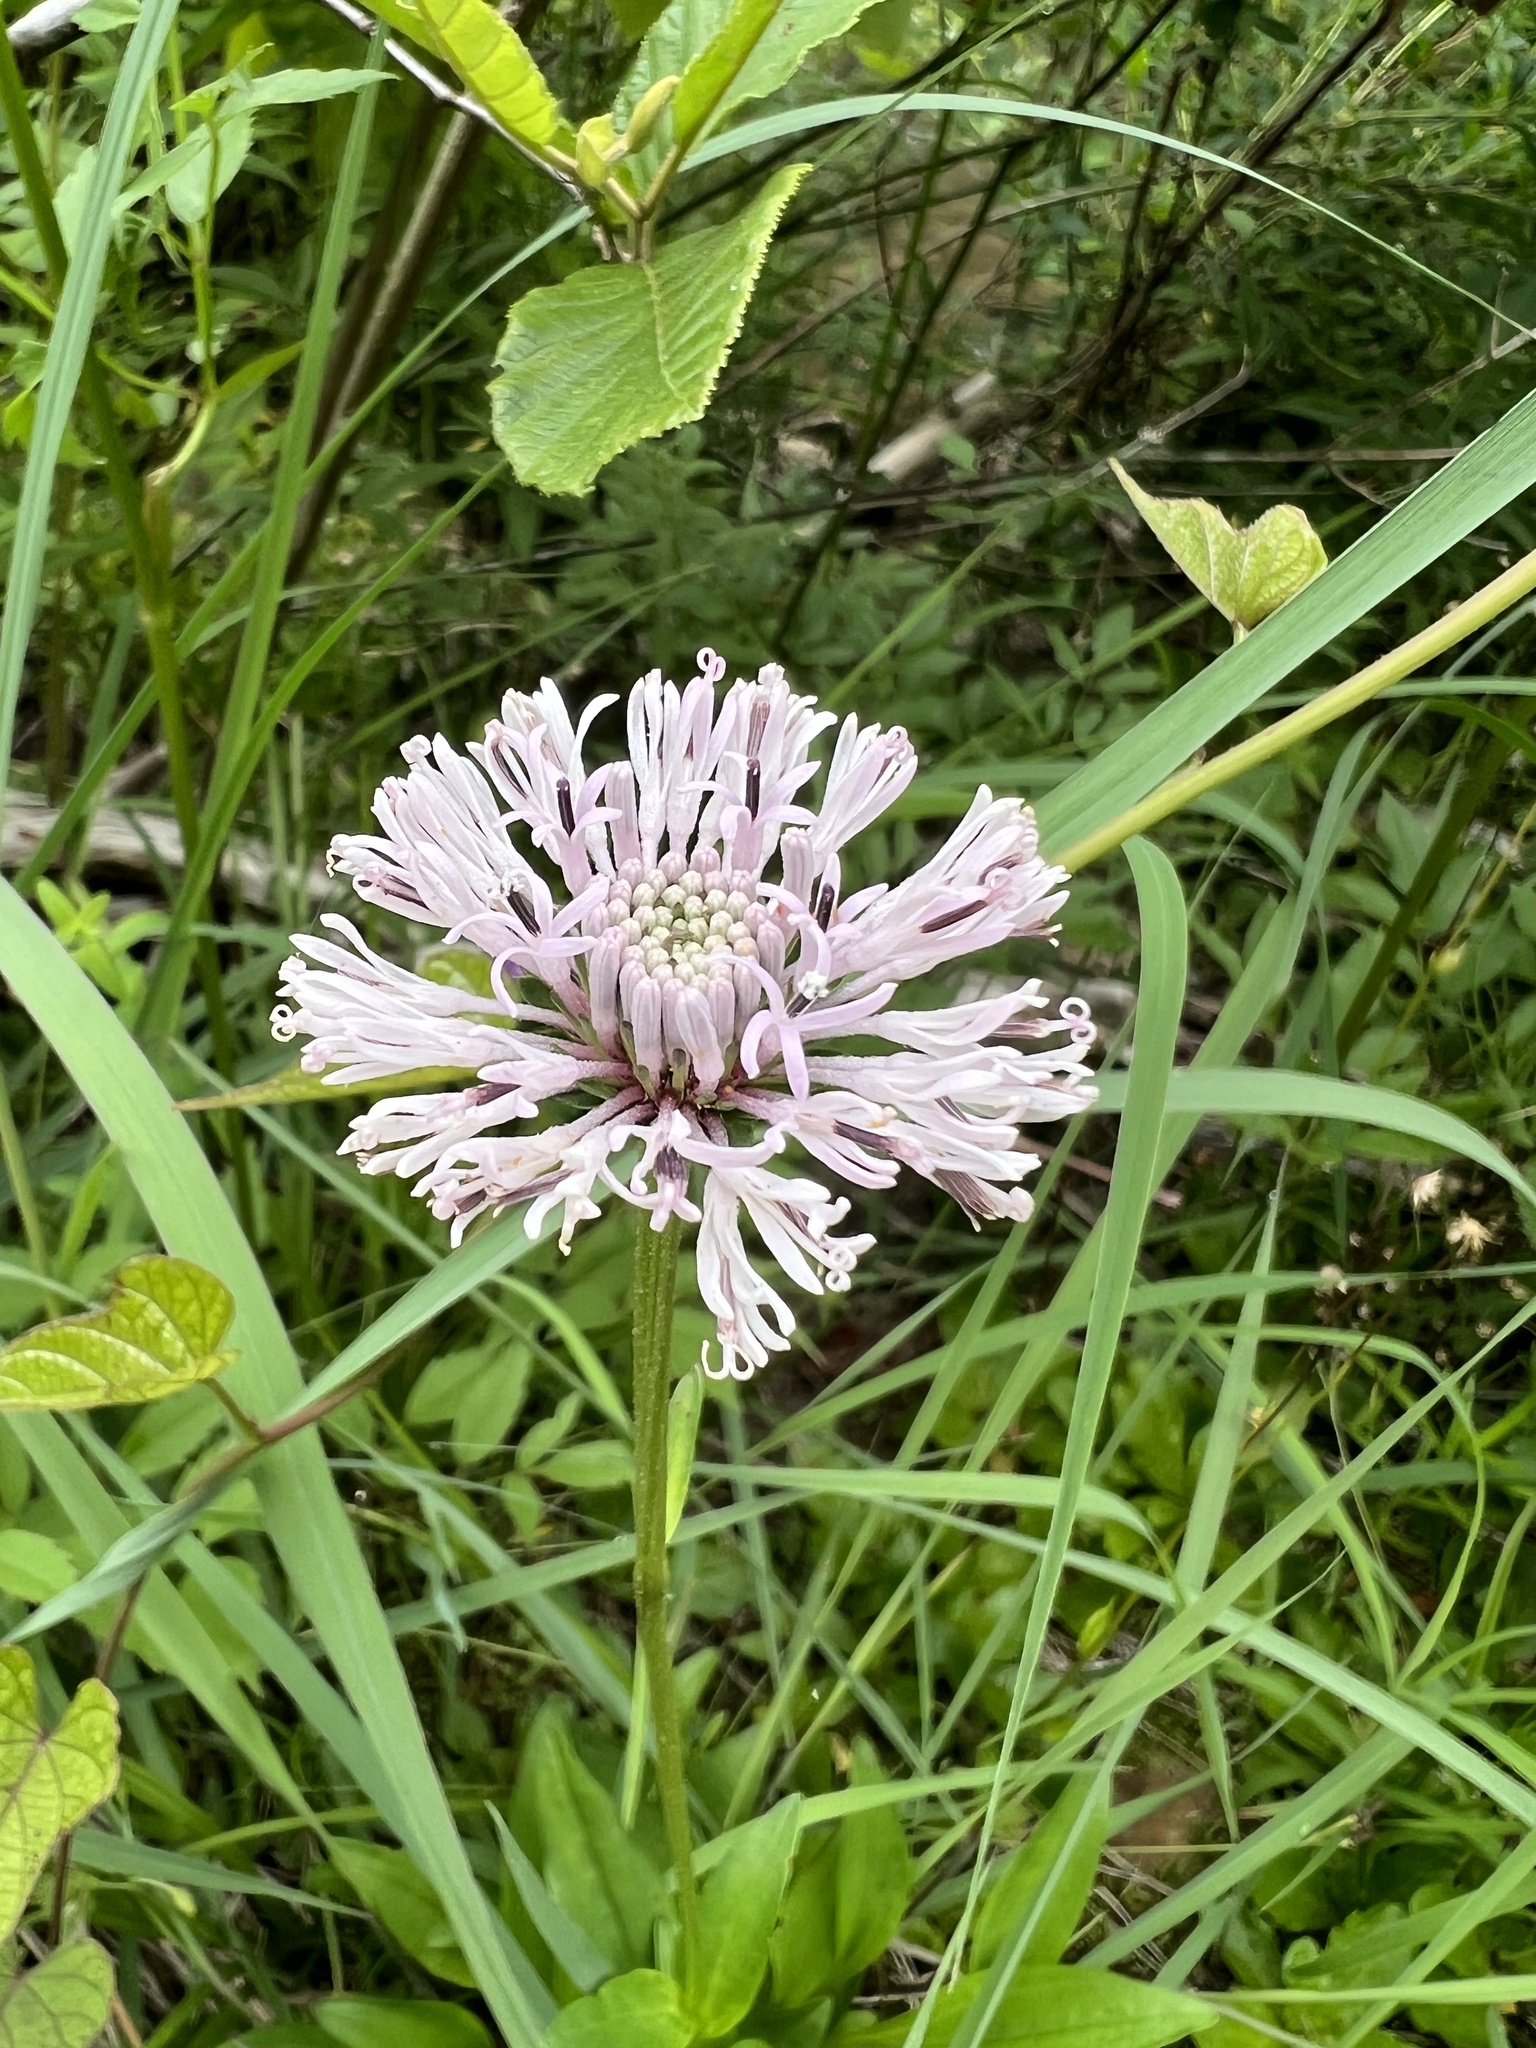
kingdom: Plantae
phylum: Tracheophyta
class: Magnoliopsida
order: Asterales
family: Asteraceae
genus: Marshallia
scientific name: Marshallia pulchra
